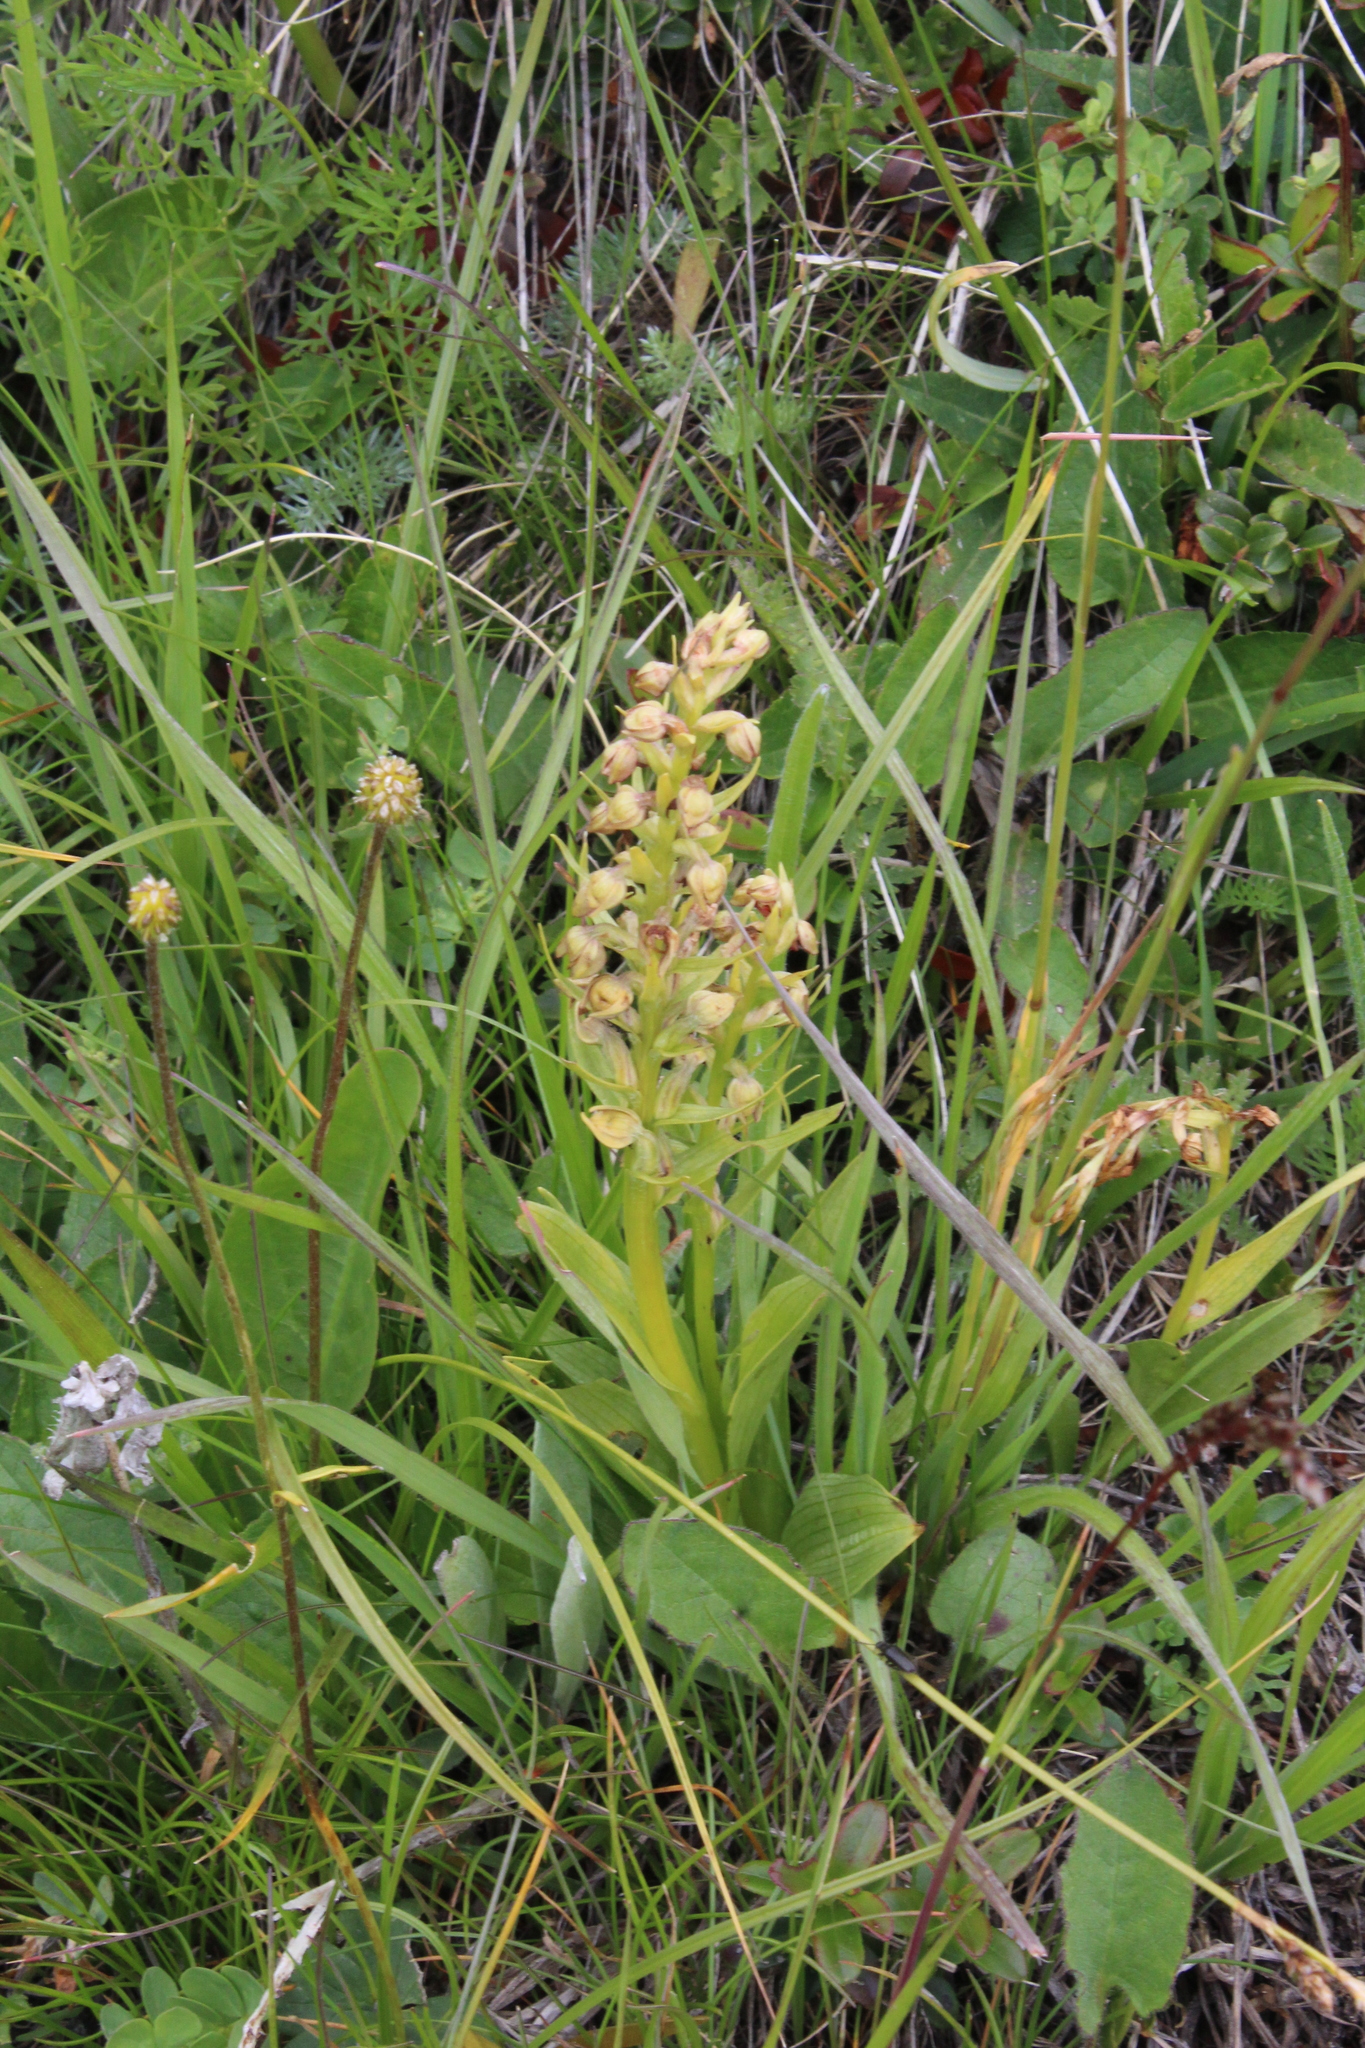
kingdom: Plantae
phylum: Tracheophyta
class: Liliopsida
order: Asparagales
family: Orchidaceae
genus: Dactylorhiza
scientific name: Dactylorhiza viridis
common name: Longbract frog orchid
